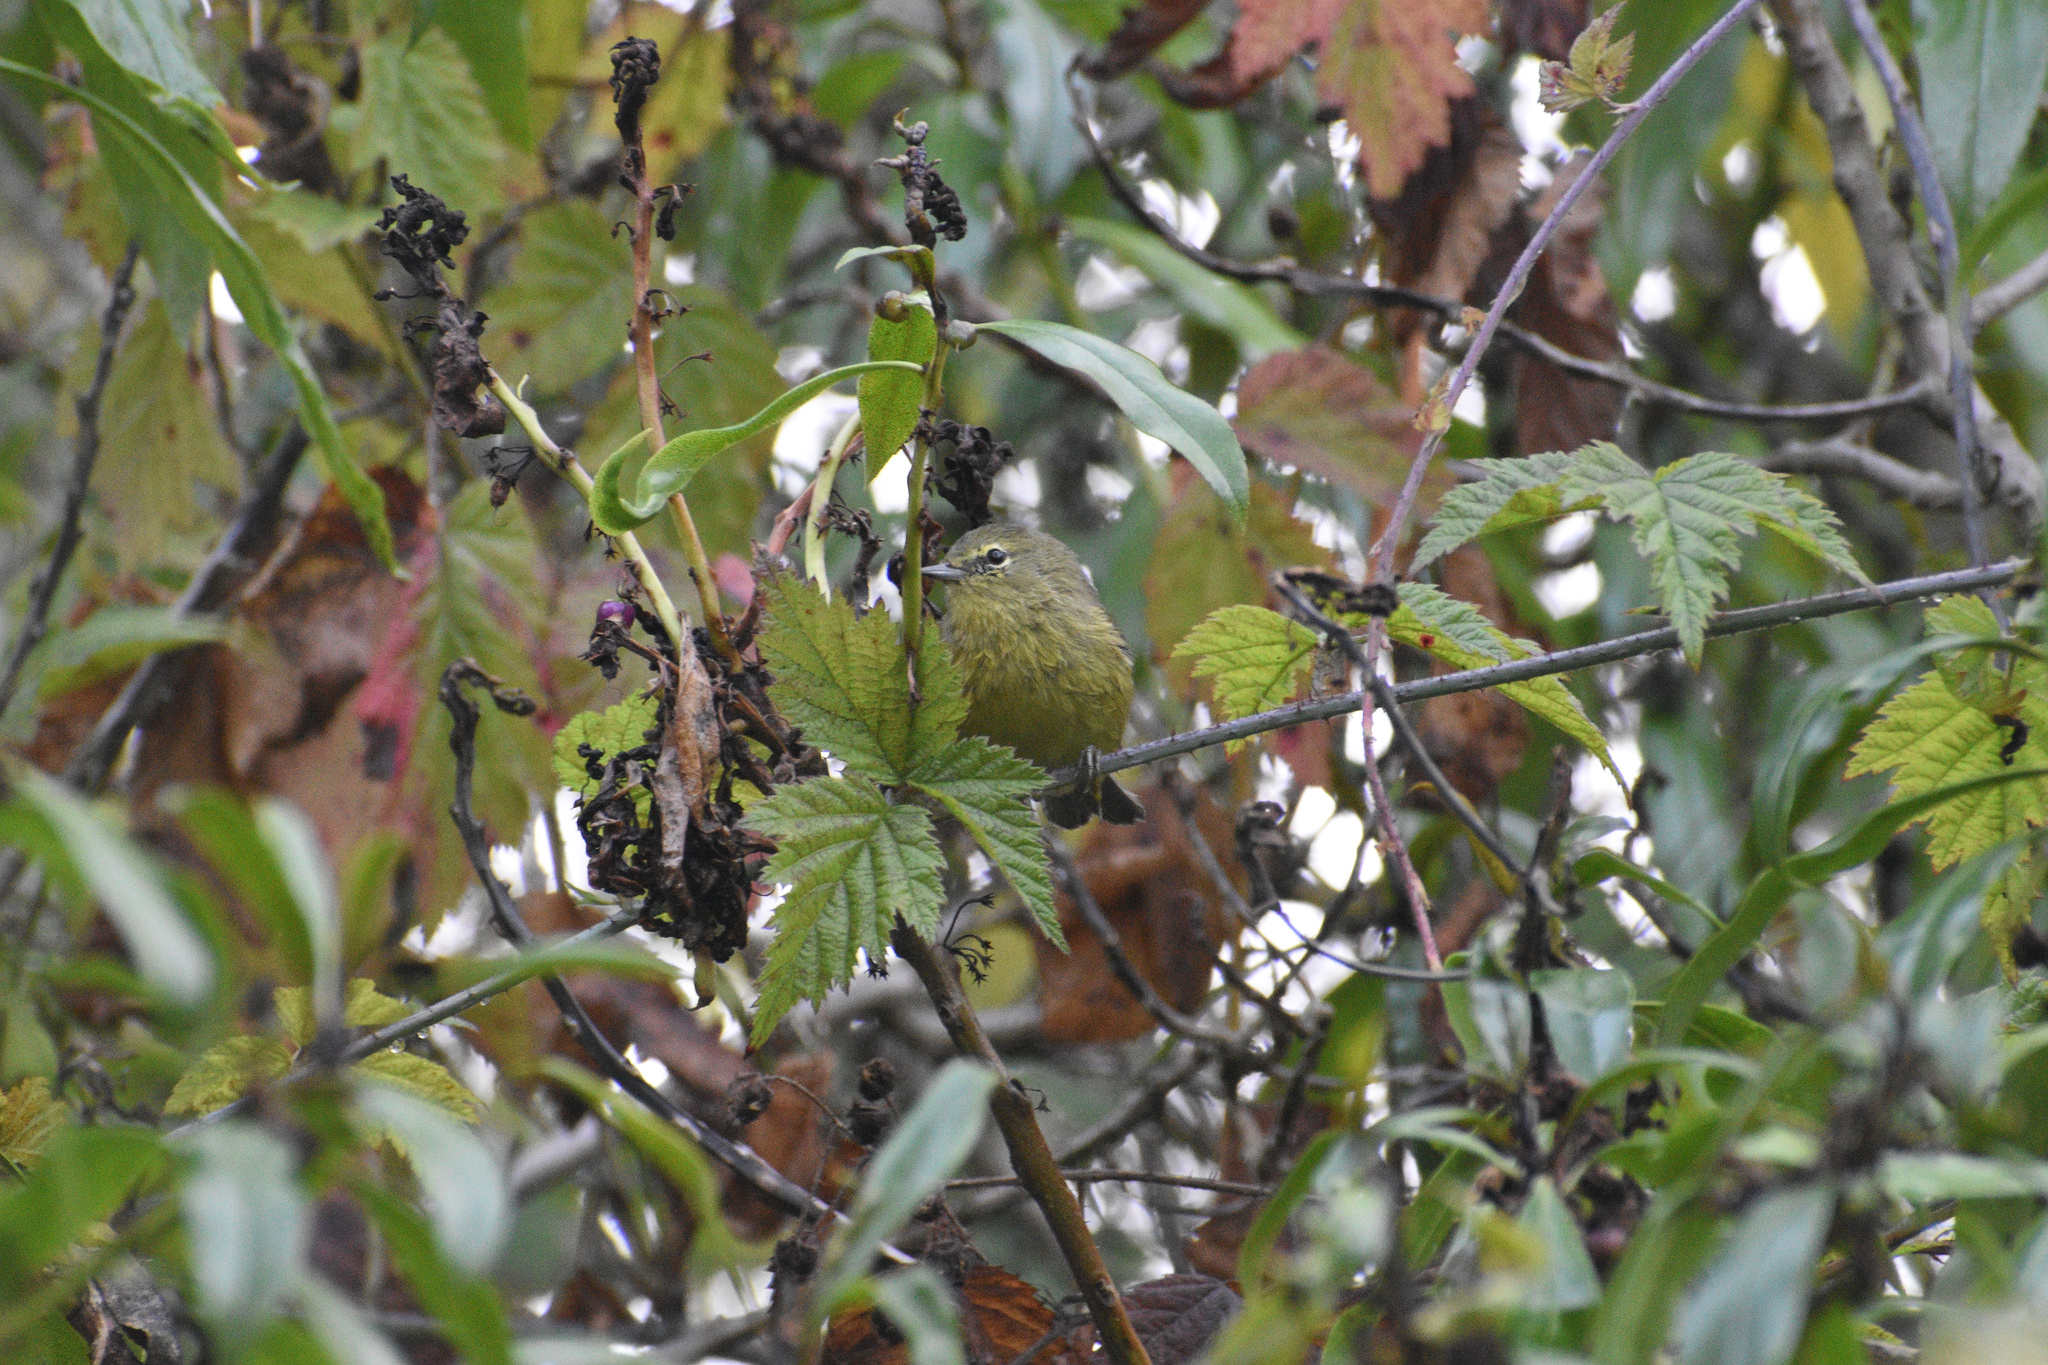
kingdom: Animalia
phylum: Chordata
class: Aves
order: Passeriformes
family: Parulidae
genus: Leiothlypis
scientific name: Leiothlypis celata
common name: Orange-crowned warbler
